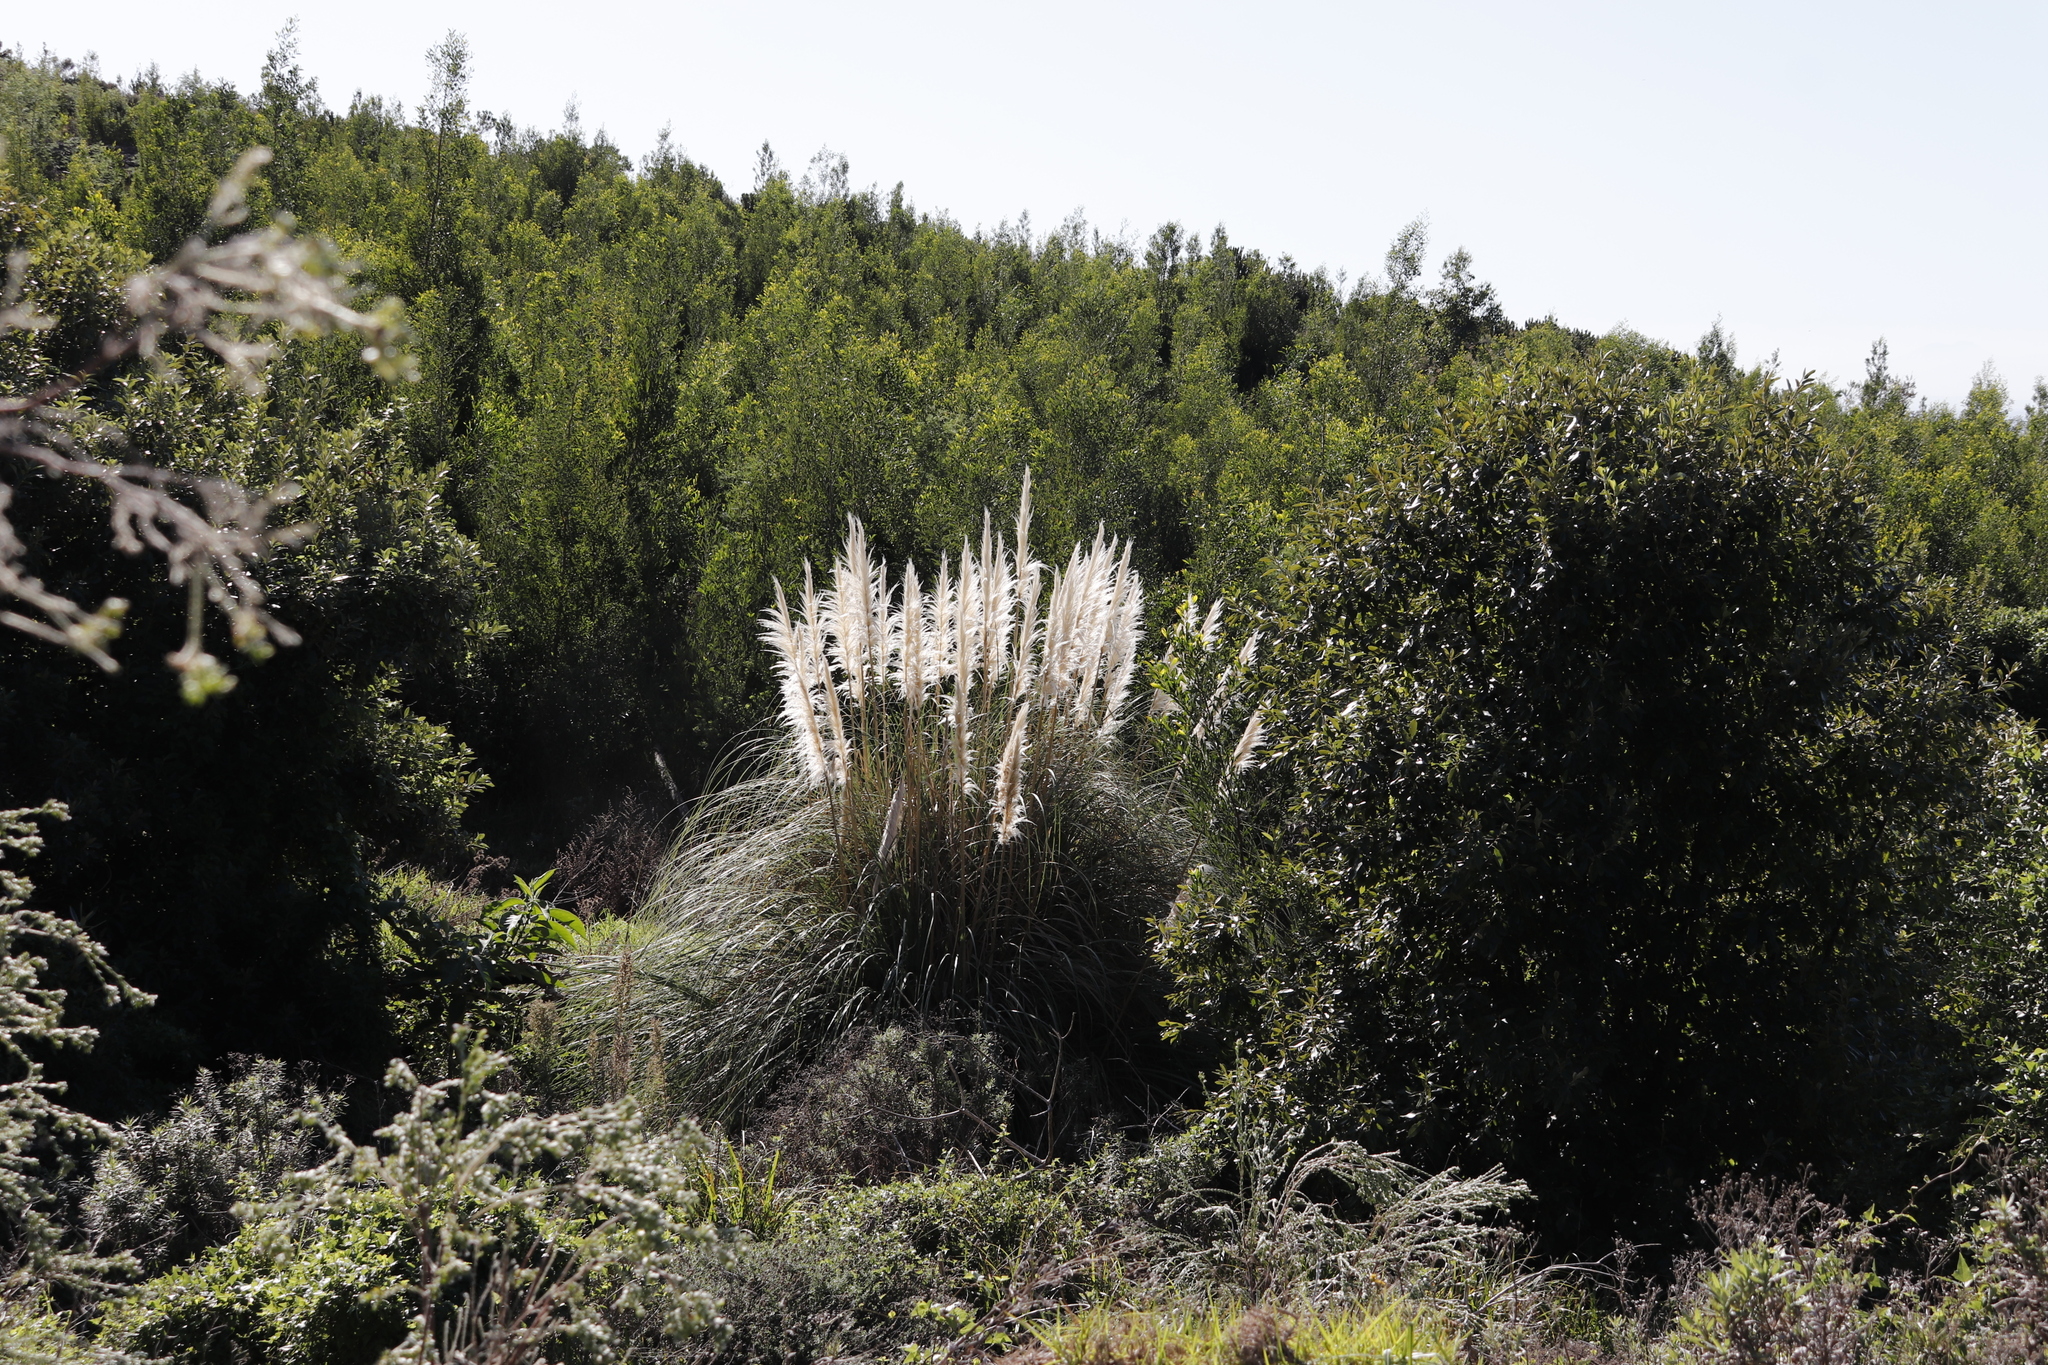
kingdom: Plantae
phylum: Tracheophyta
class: Liliopsida
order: Poales
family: Poaceae
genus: Cortaderia
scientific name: Cortaderia selloana
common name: Uruguayan pampas grass
